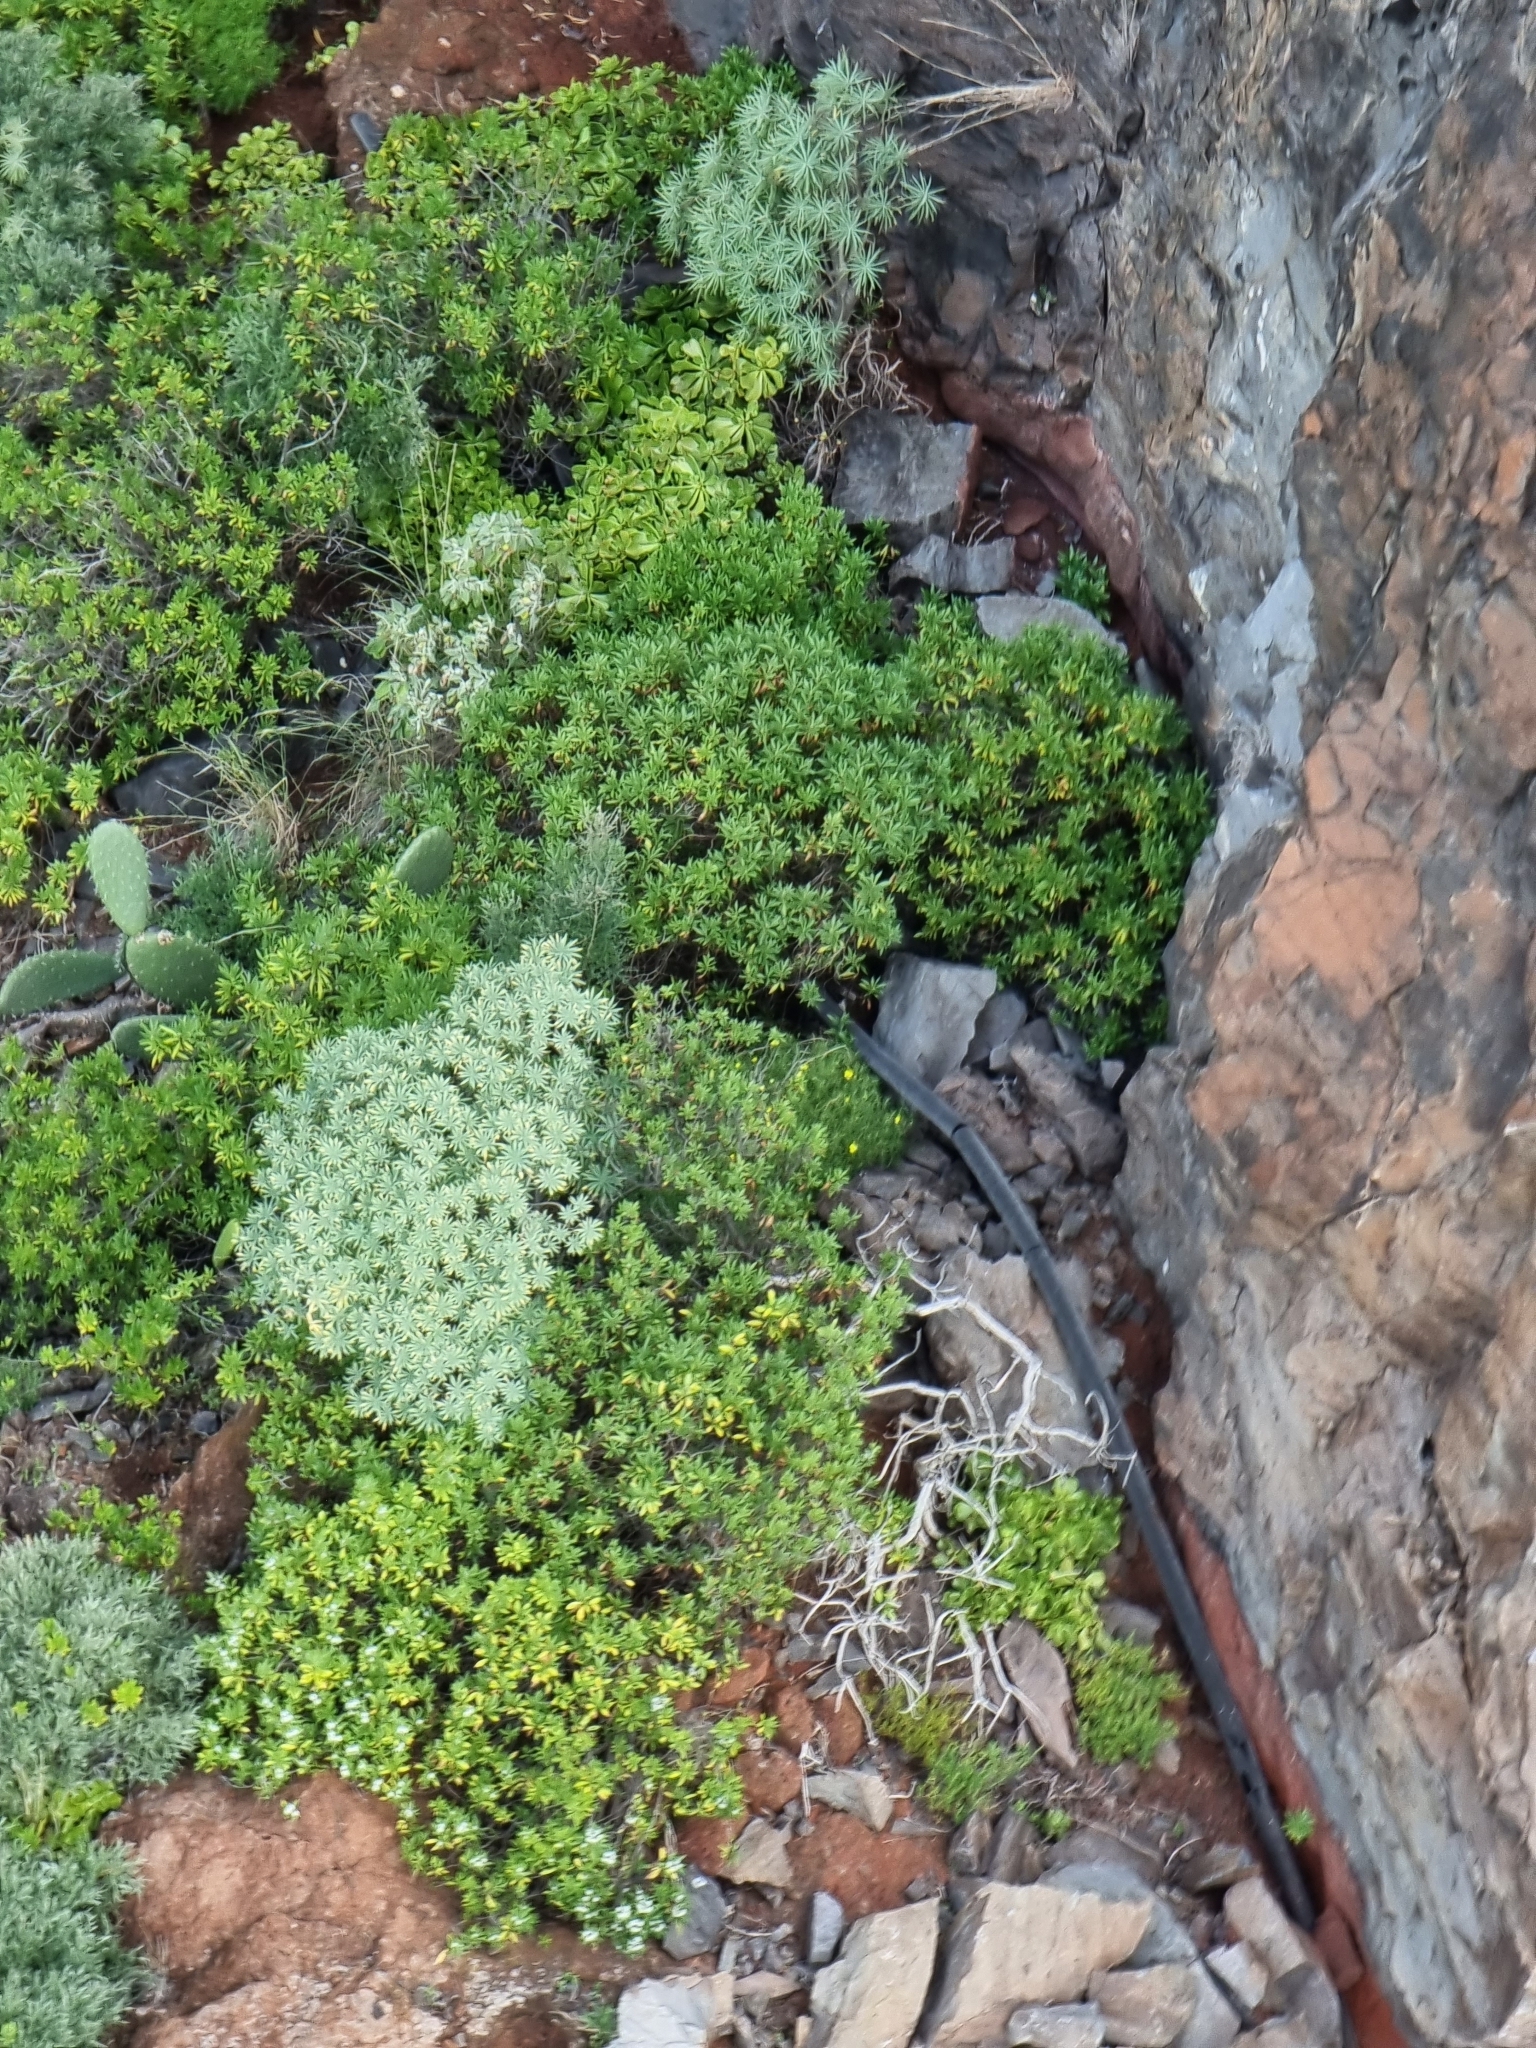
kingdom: Plantae
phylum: Tracheophyta
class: Magnoliopsida
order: Malpighiales
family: Euphorbiaceae
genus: Euphorbia
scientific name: Euphorbia piscatoria
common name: Fish-stunning spurge
